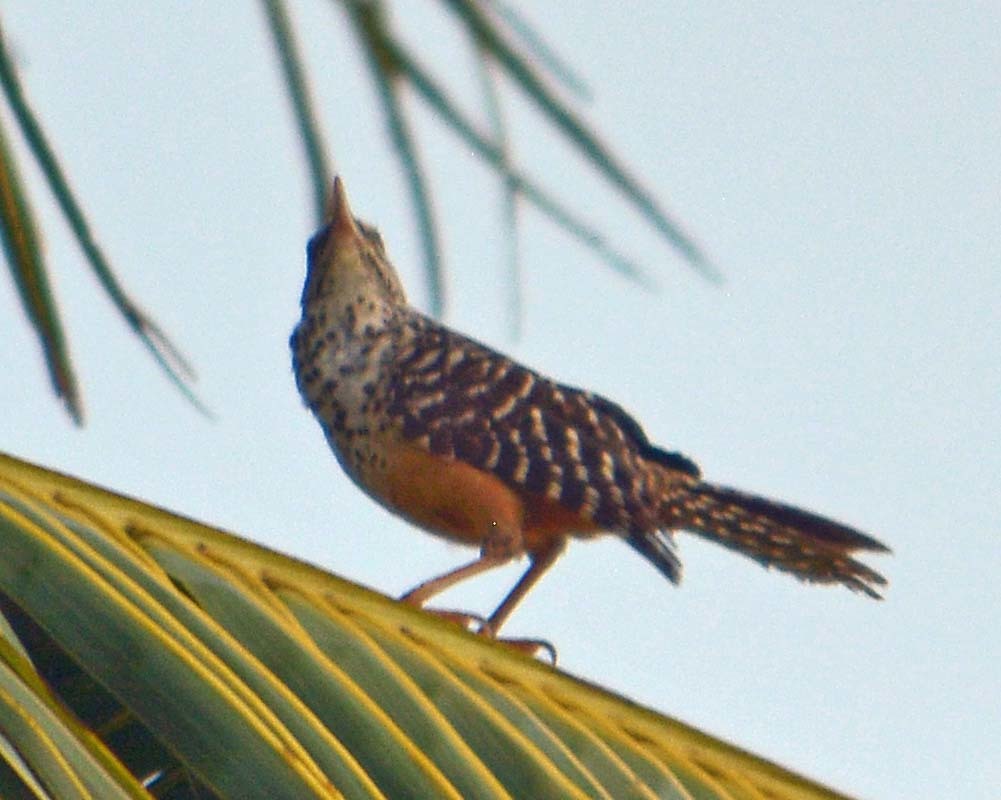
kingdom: Animalia
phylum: Chordata
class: Aves
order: Passeriformes
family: Troglodytidae
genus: Campylorhynchus
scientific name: Campylorhynchus zonatus
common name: Band-backed wren
